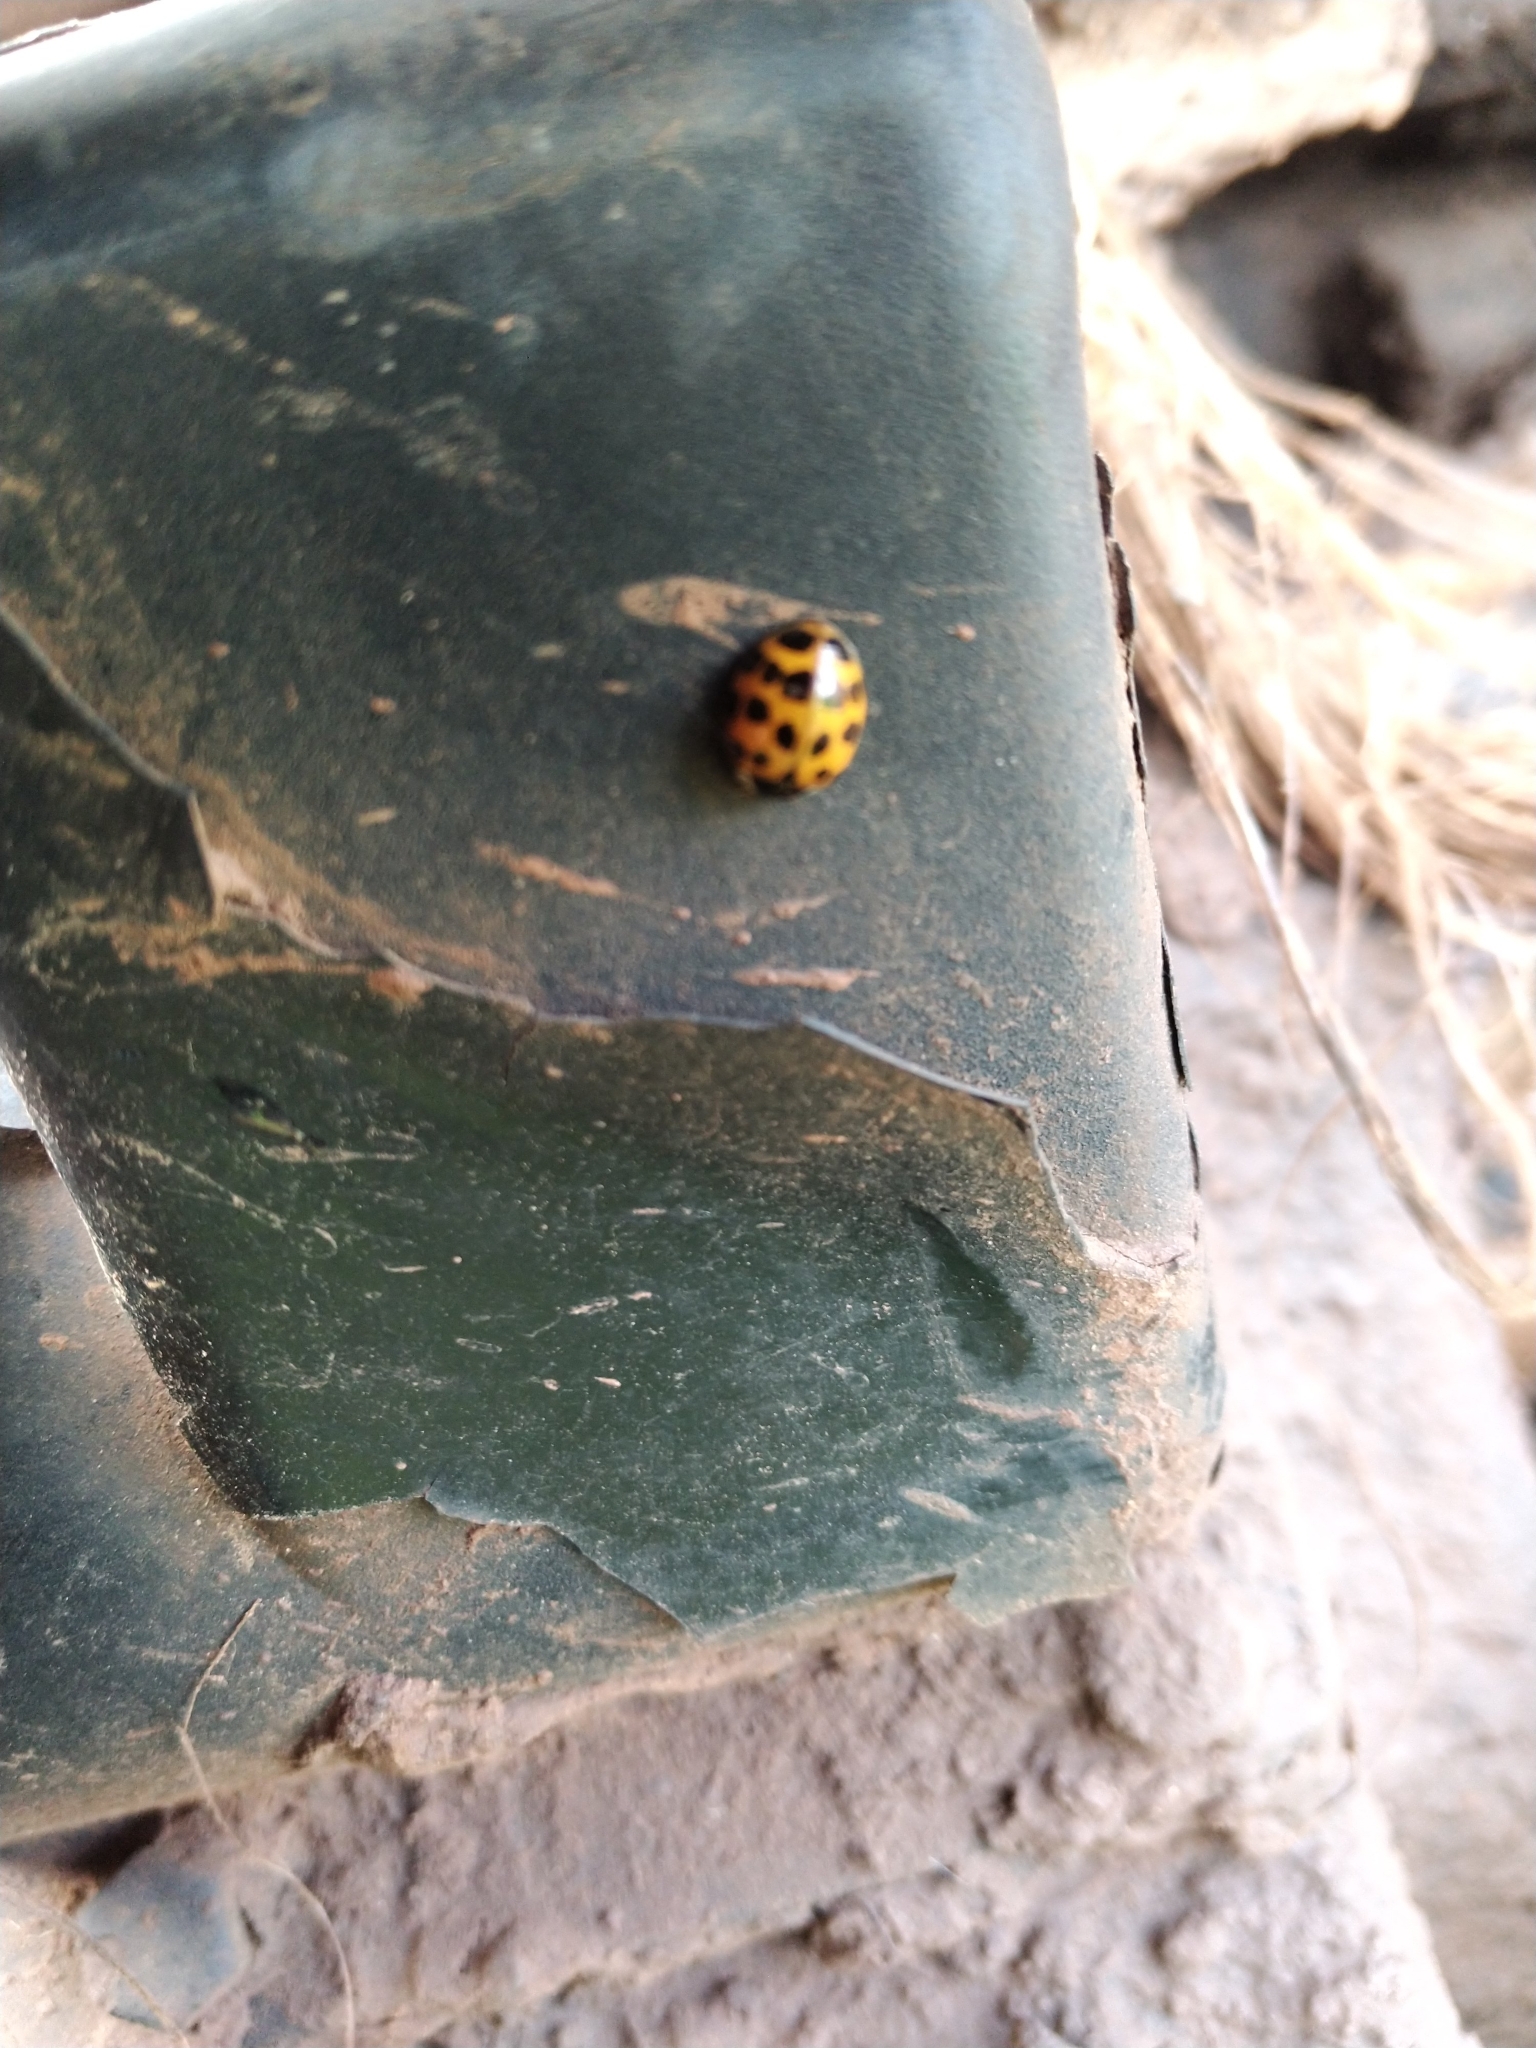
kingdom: Animalia
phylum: Arthropoda
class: Insecta
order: Coleoptera
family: Coccinellidae
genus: Harmonia
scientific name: Harmonia axyridis
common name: Harlequin ladybird
